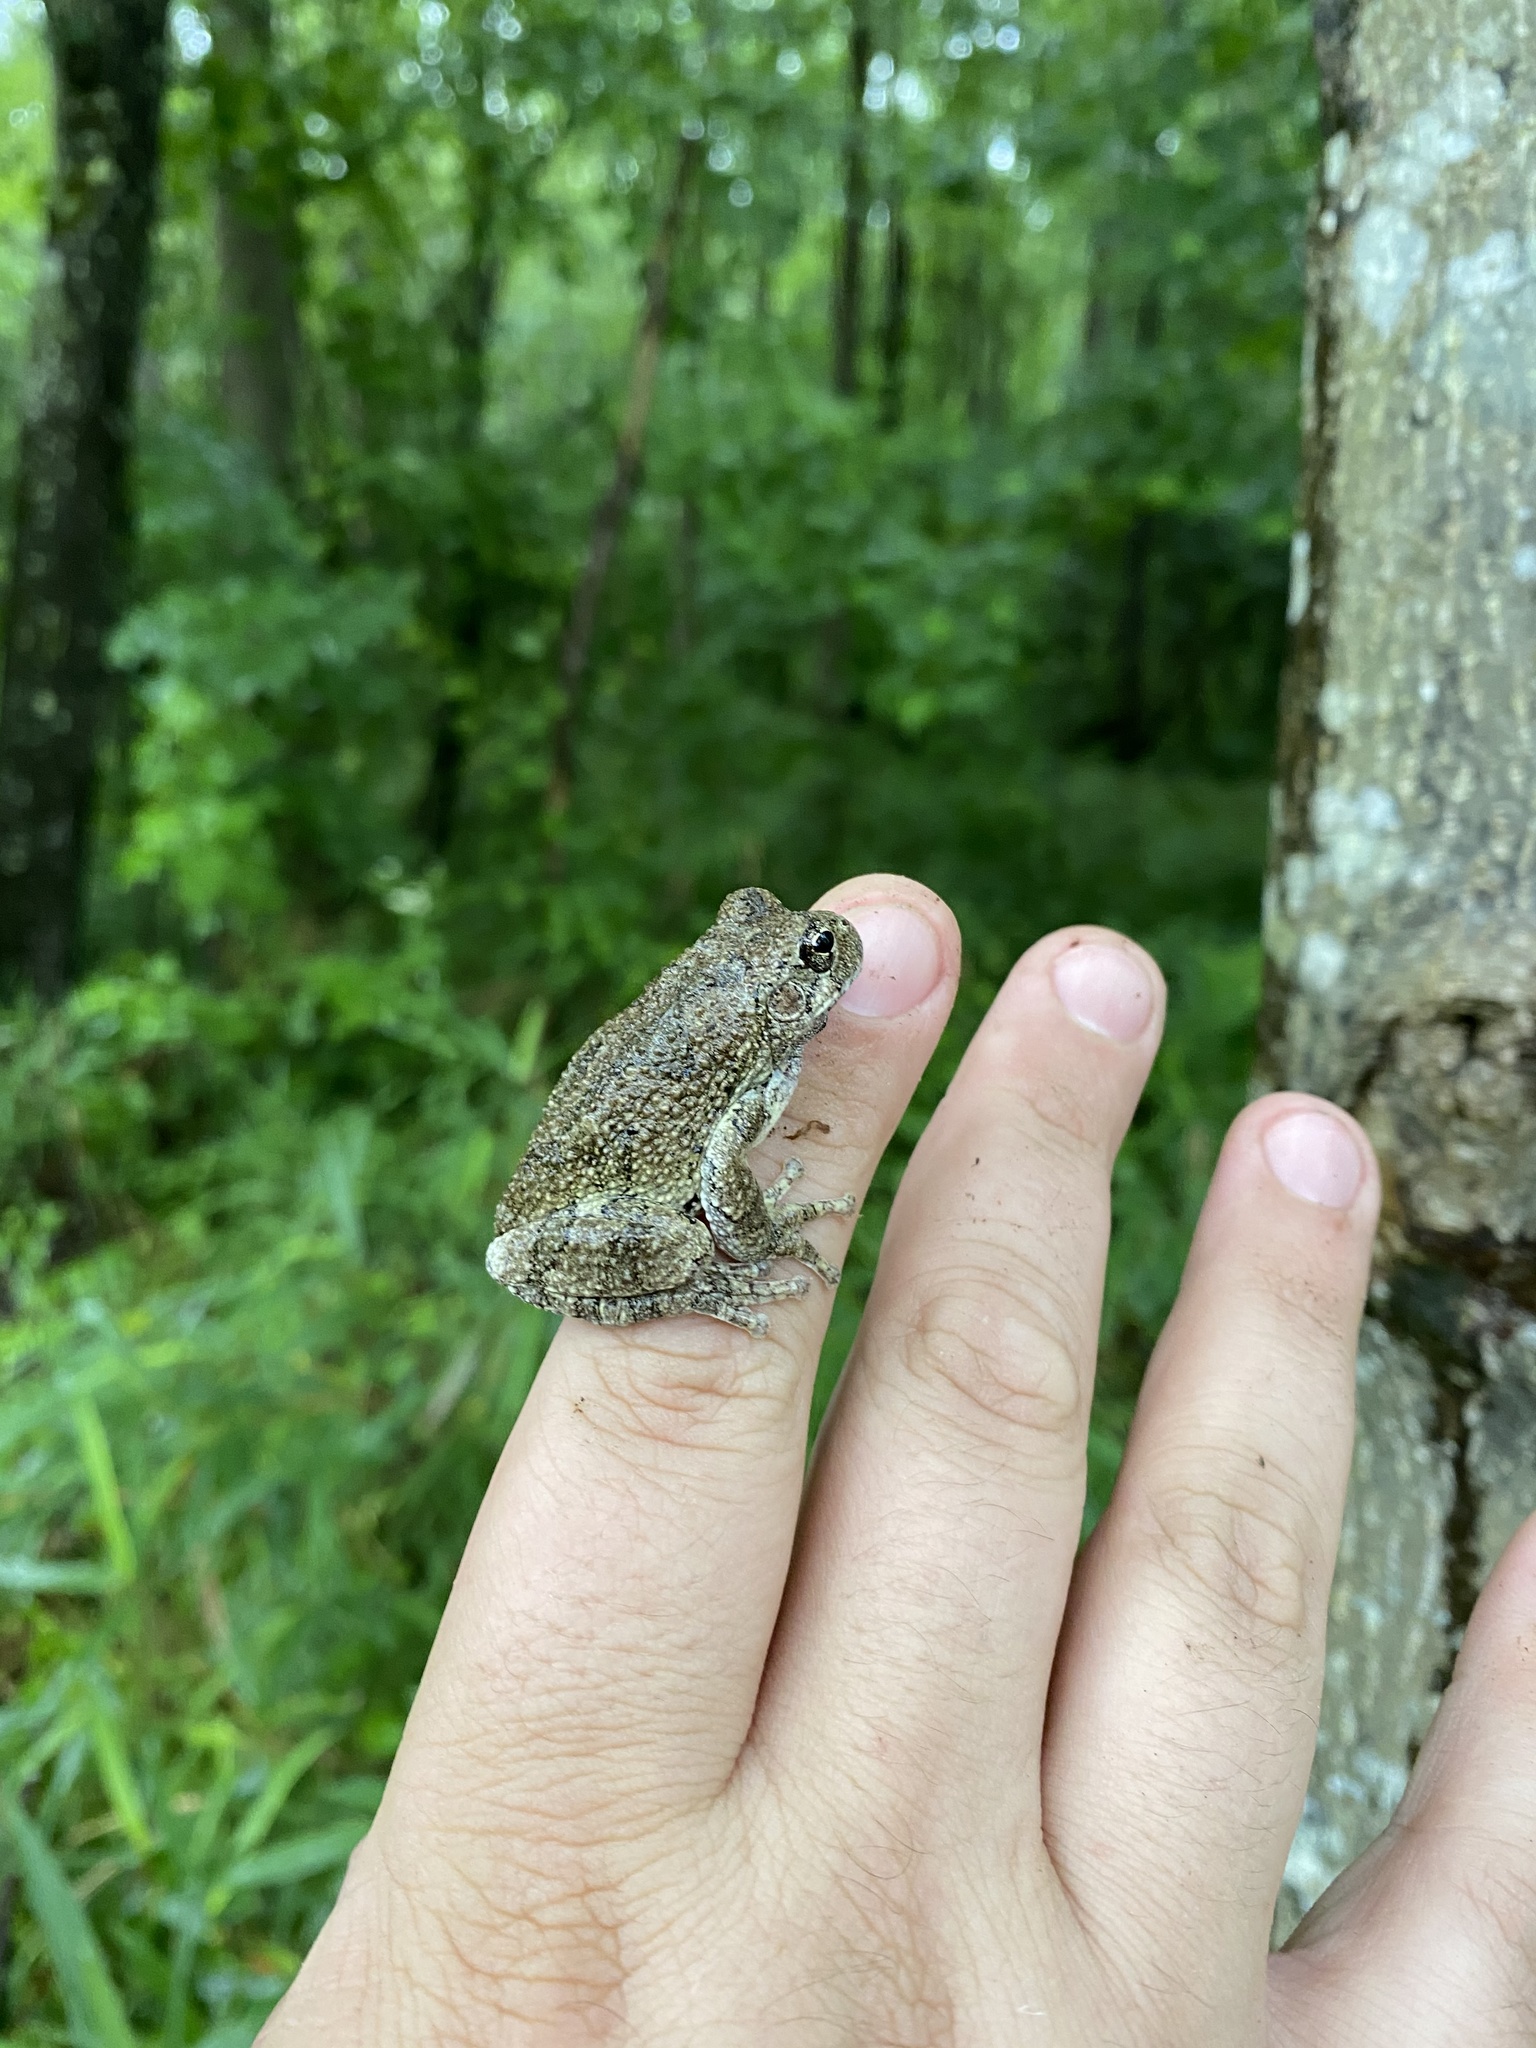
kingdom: Animalia
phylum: Chordata
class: Amphibia
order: Anura
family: Hylidae
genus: Dryophytes
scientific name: Dryophytes chrysoscelis
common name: Cope's gray treefrog
